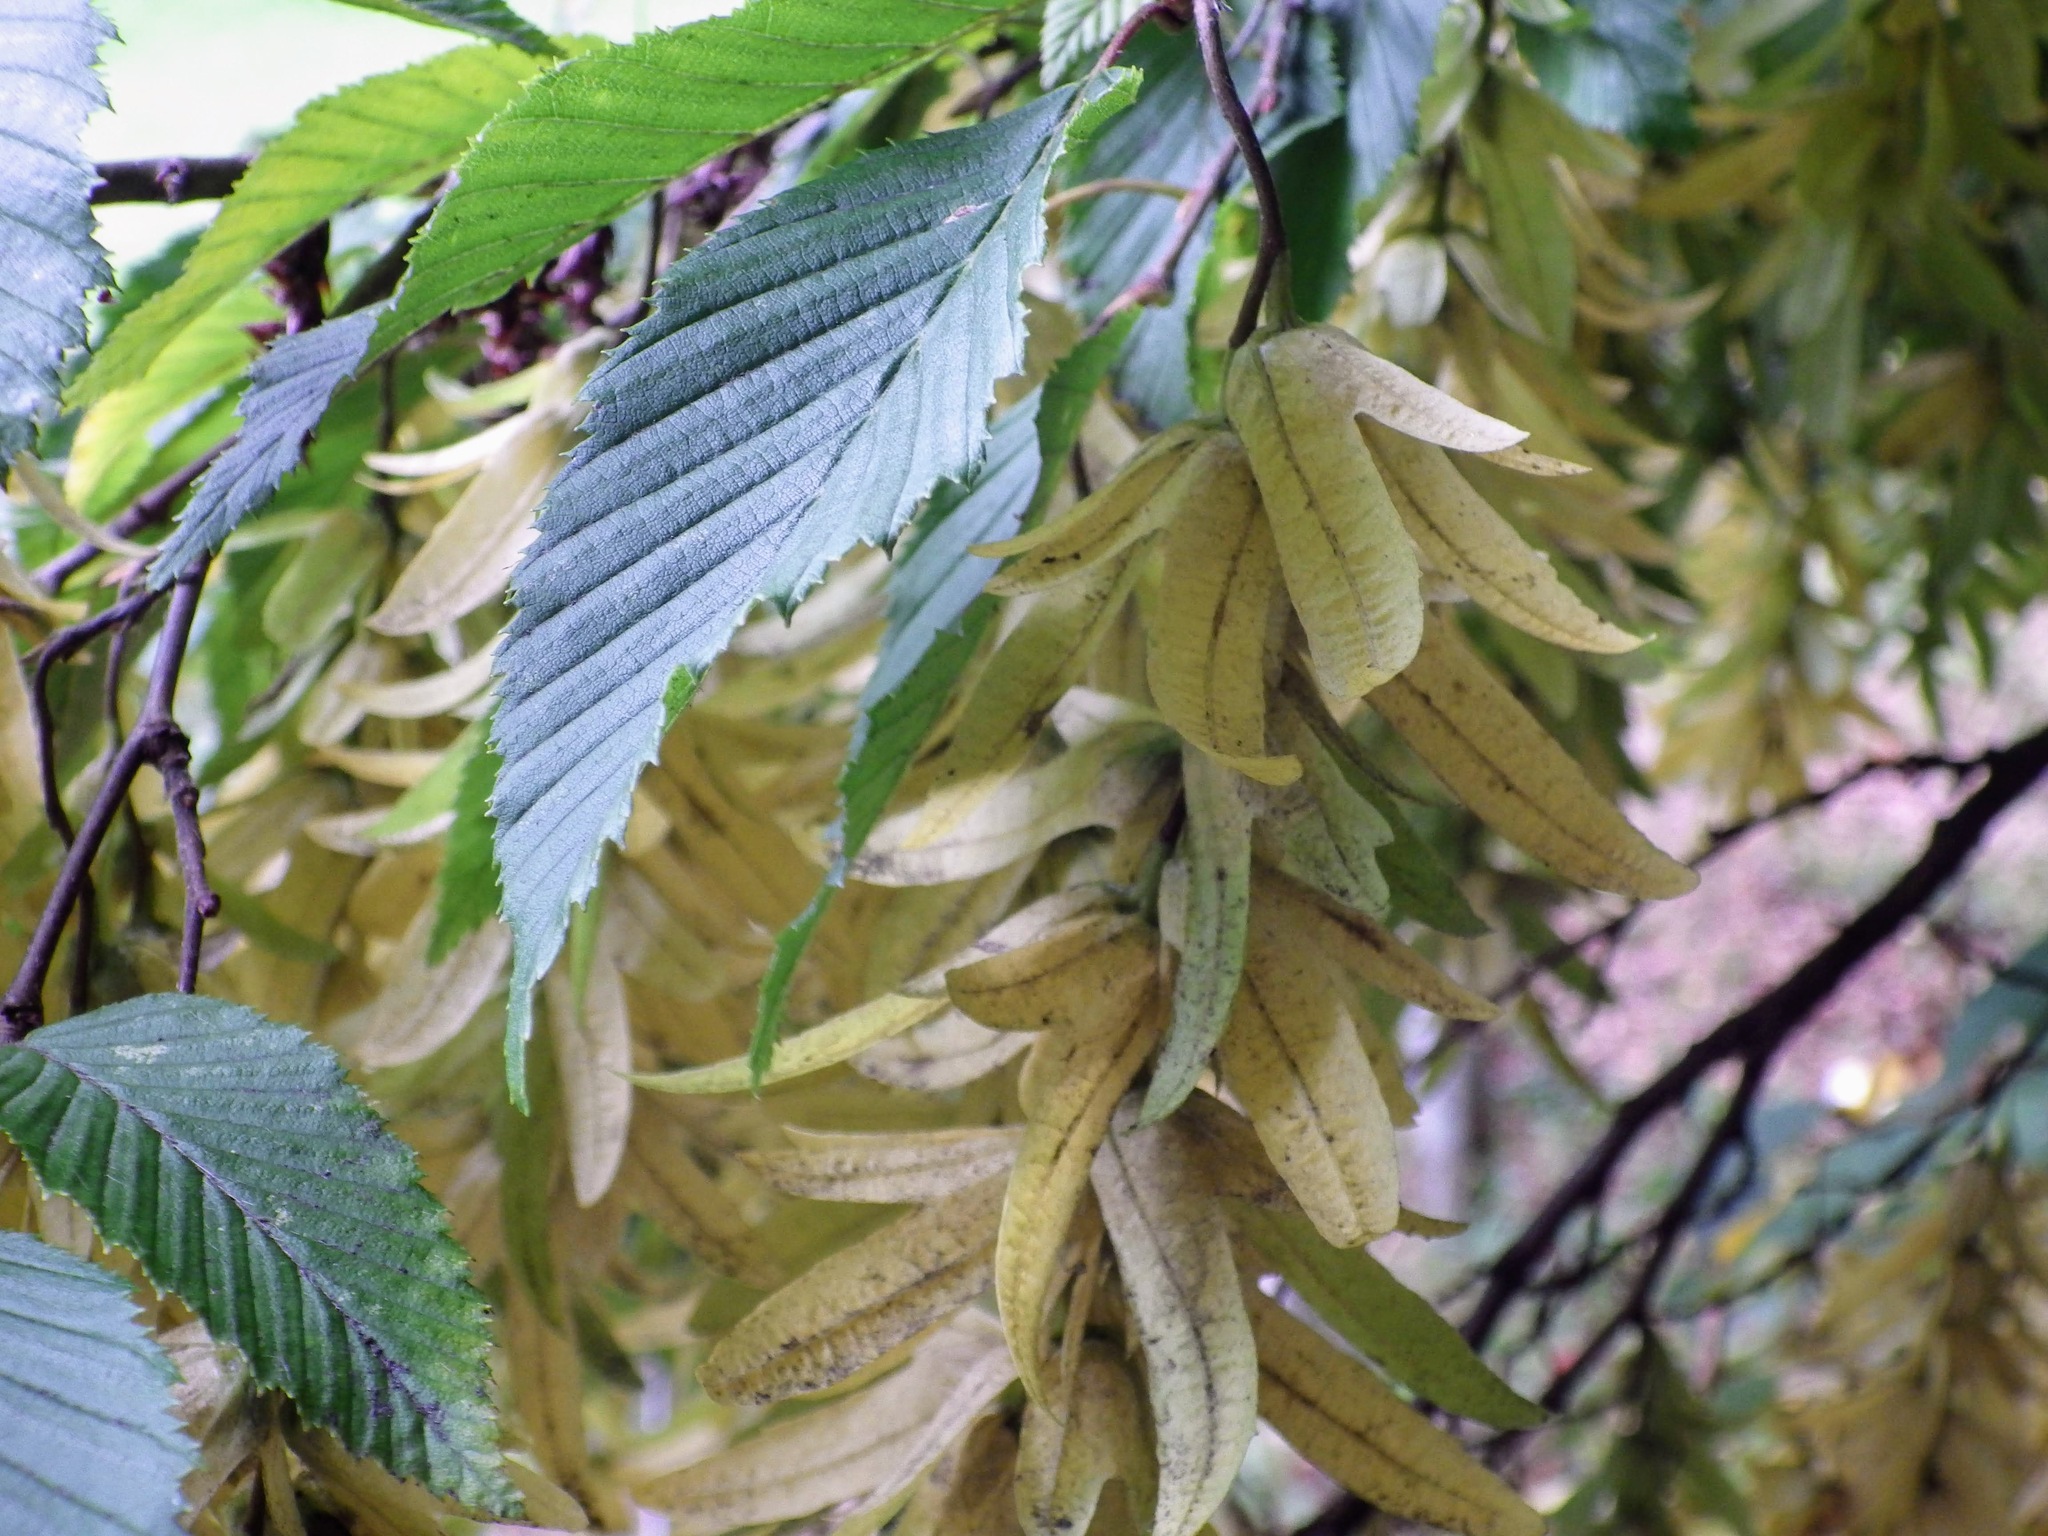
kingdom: Plantae
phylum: Tracheophyta
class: Magnoliopsida
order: Fagales
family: Betulaceae
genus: Carpinus
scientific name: Carpinus betulus
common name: Hornbeam
